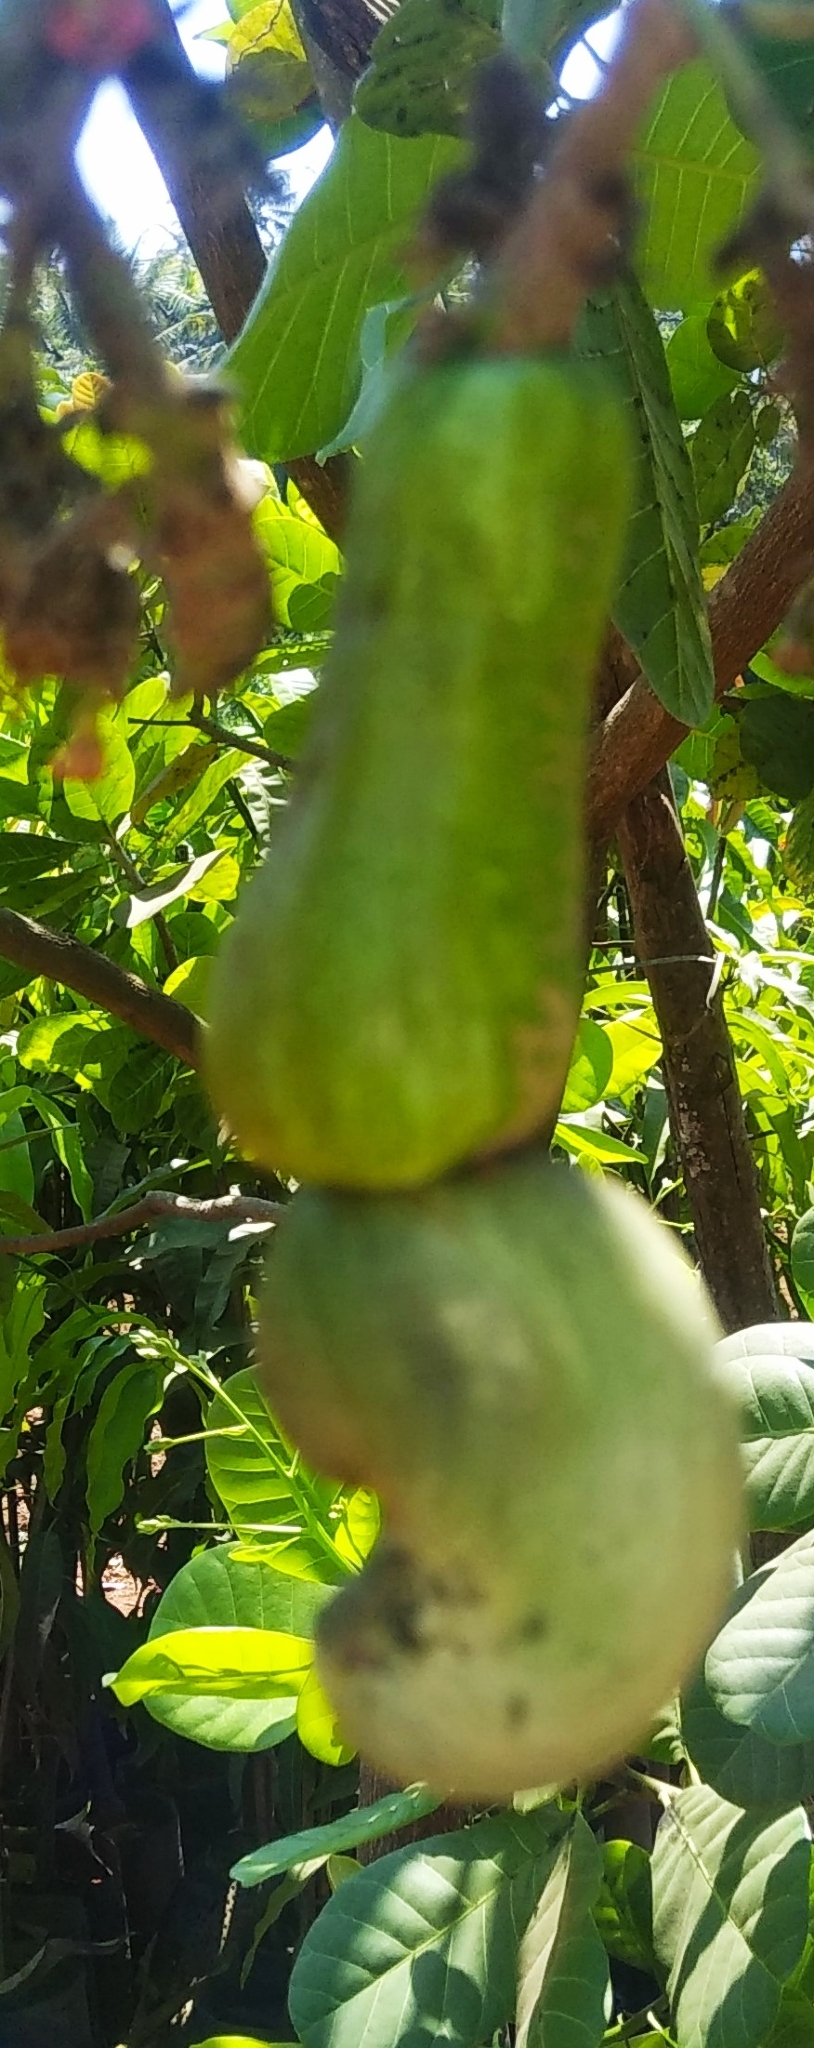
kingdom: Plantae
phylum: Tracheophyta
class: Magnoliopsida
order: Sapindales
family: Anacardiaceae
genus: Anacardium
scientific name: Anacardium occidentale
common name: Cashew
